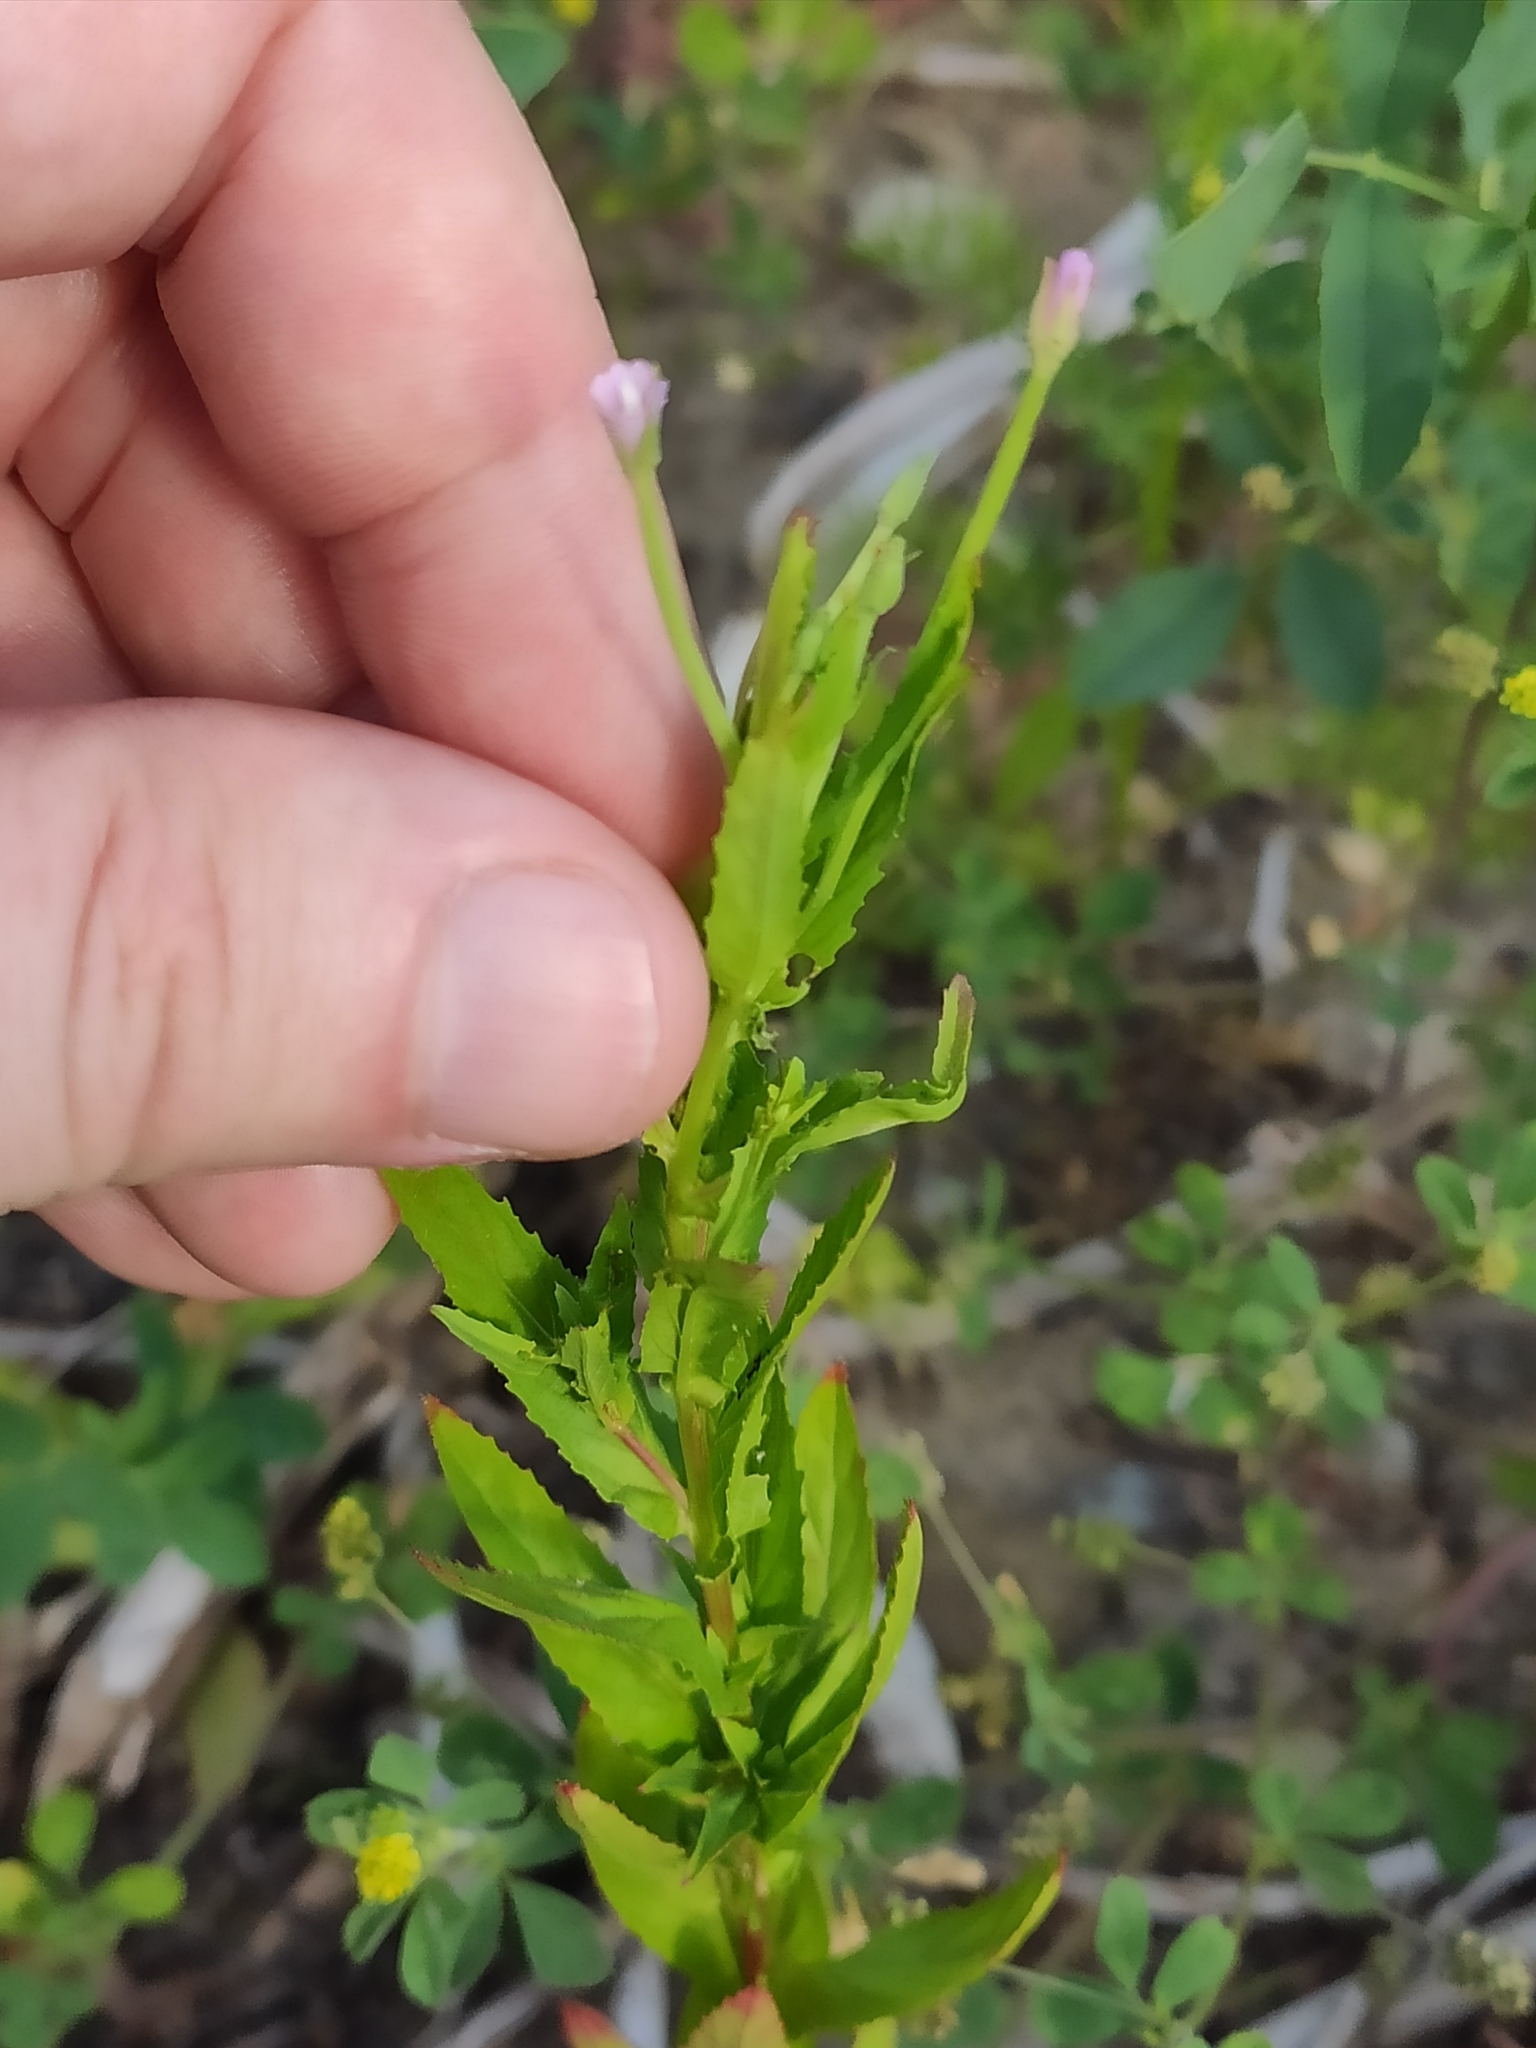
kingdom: Plantae
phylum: Tracheophyta
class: Magnoliopsida
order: Myrtales
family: Onagraceae
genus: Epilobium
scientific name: Epilobium tetragonum
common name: Square-stemmed willowherb
